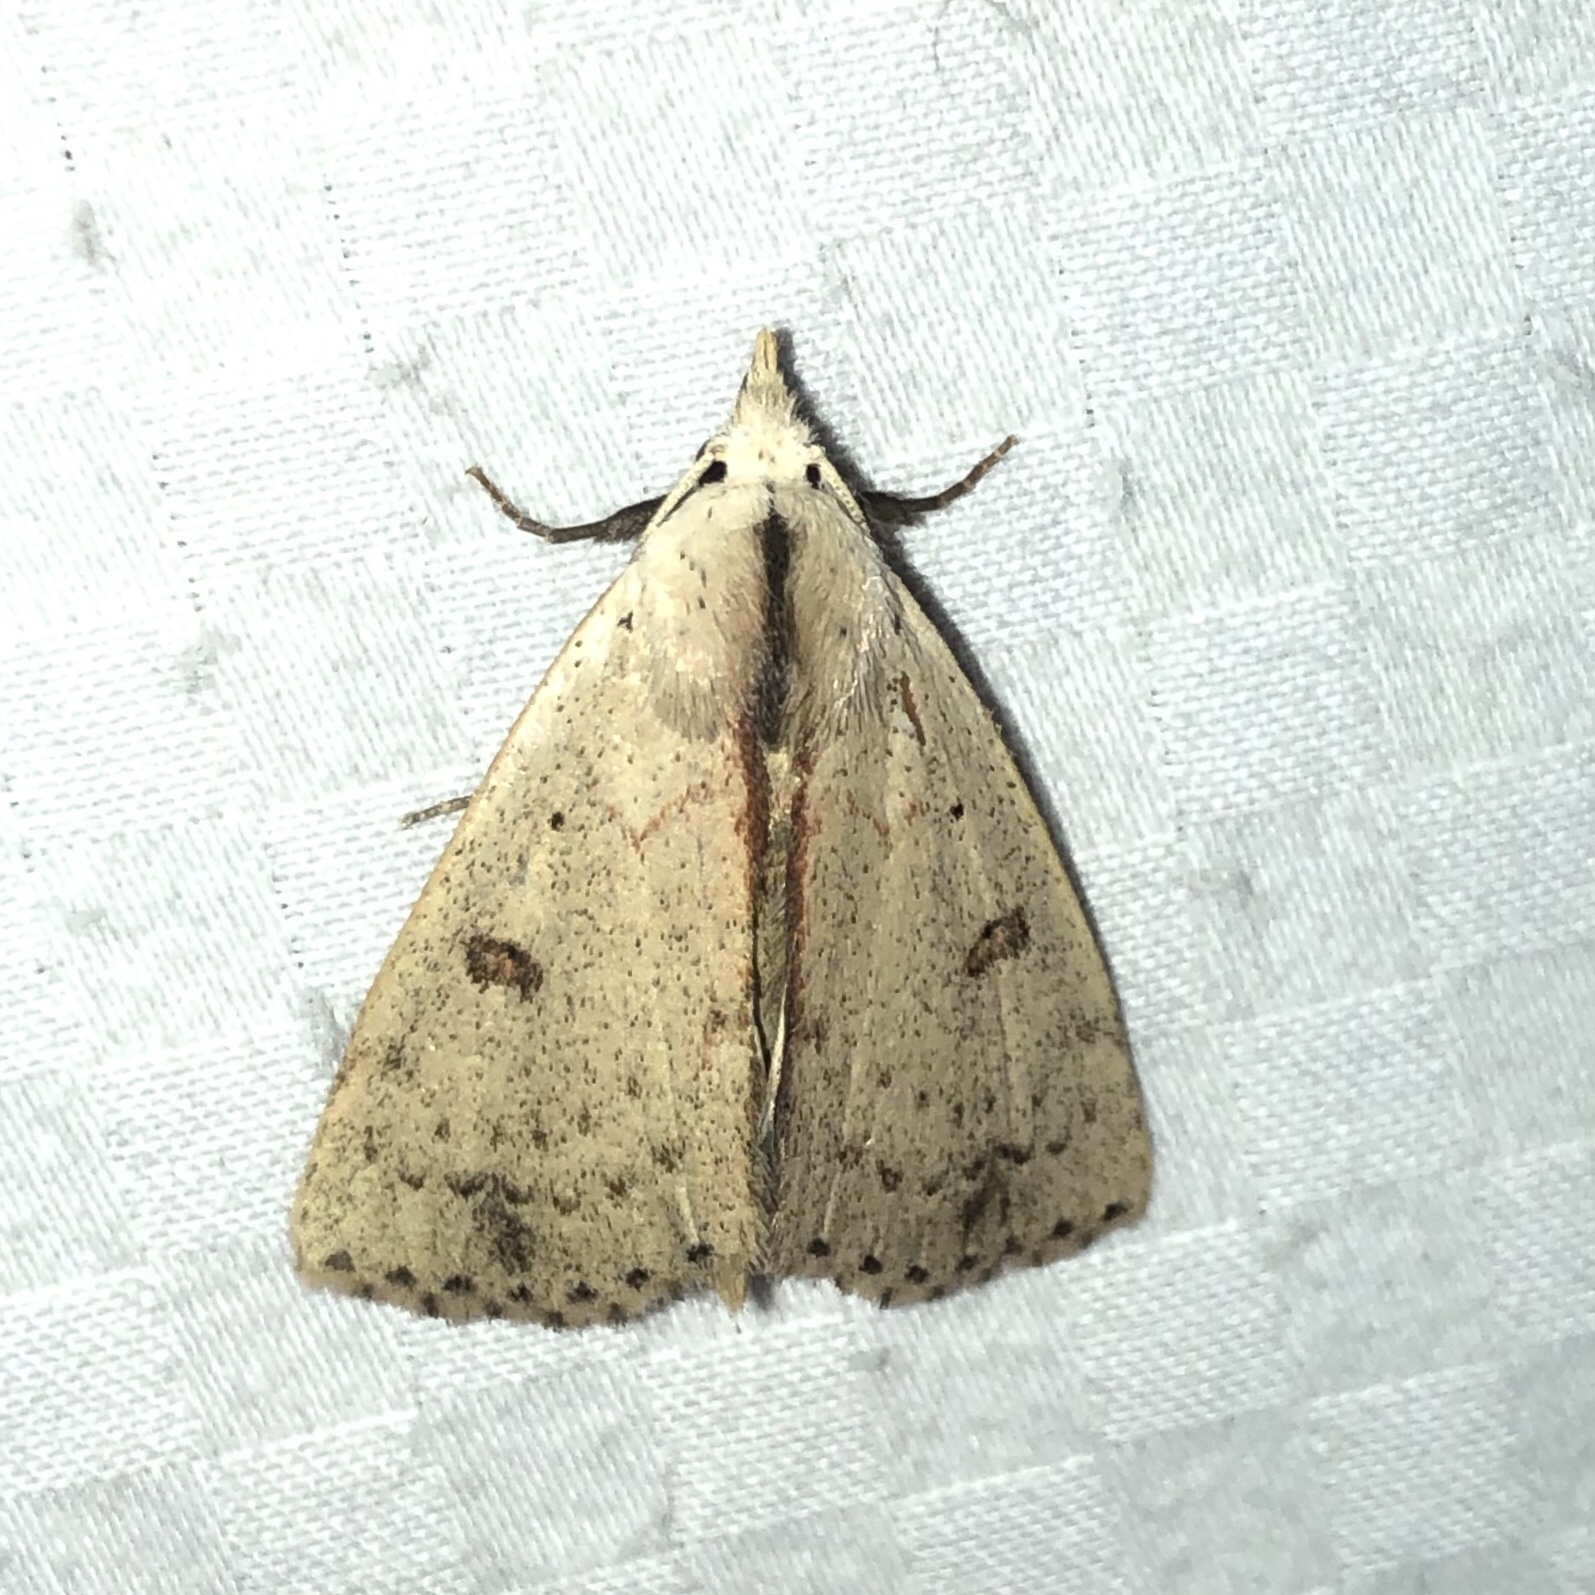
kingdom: Animalia
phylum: Arthropoda
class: Insecta
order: Lepidoptera
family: Erebidae
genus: Scolecocampa
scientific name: Scolecocampa liburna
